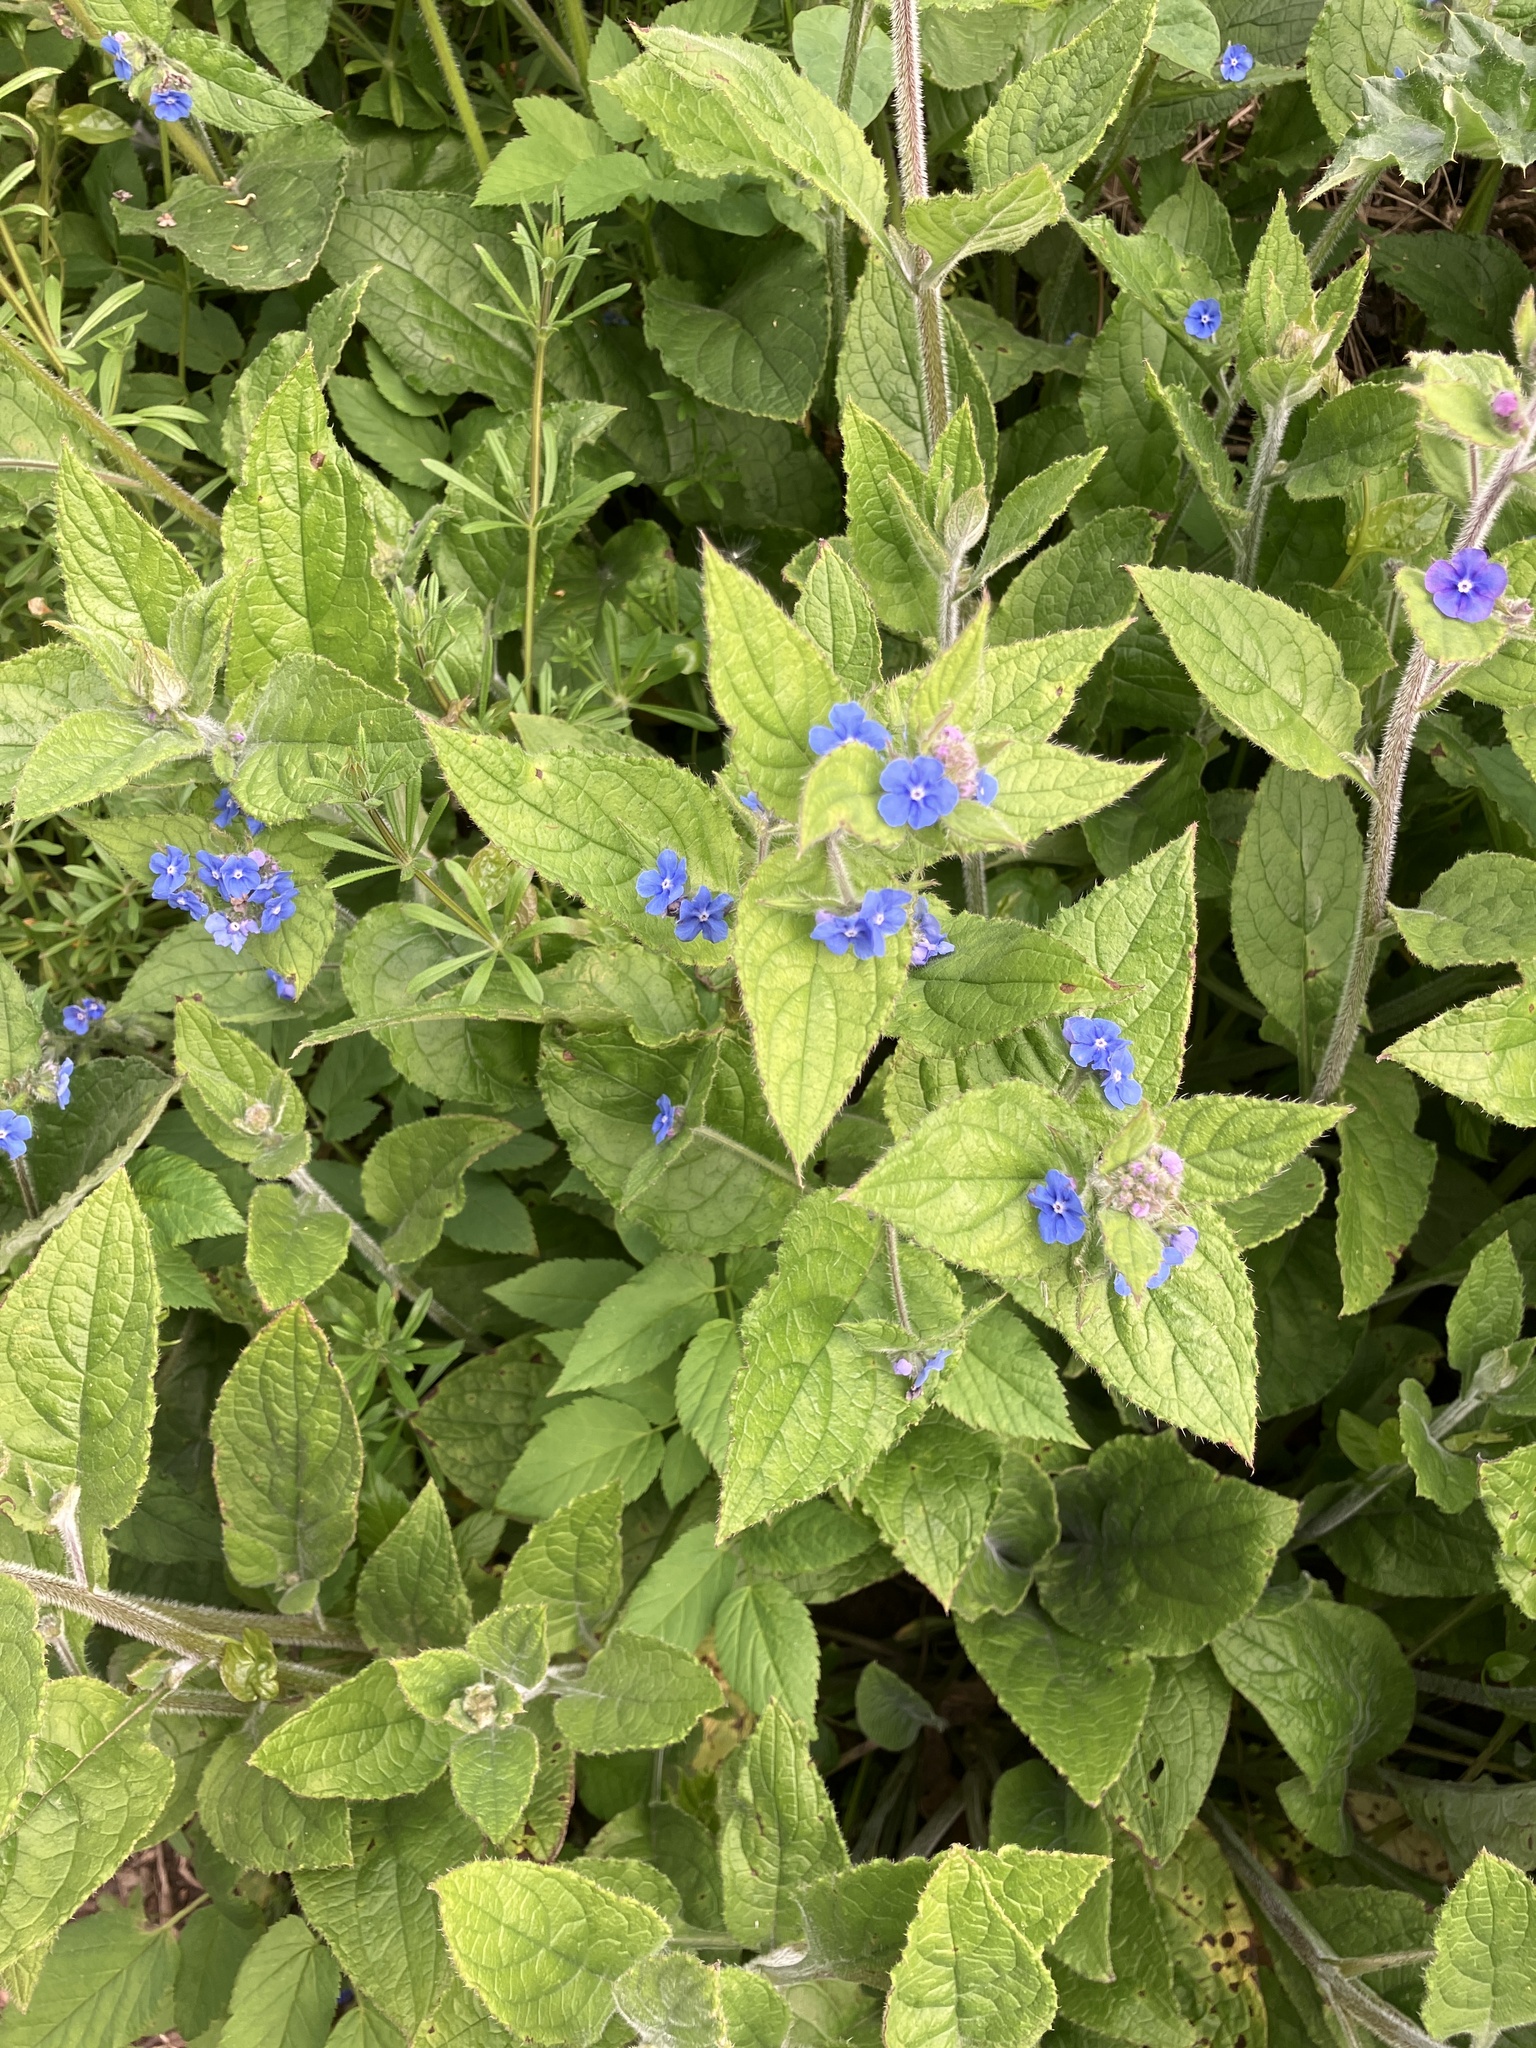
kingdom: Plantae
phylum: Tracheophyta
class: Magnoliopsida
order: Boraginales
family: Boraginaceae
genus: Pentaglottis
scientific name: Pentaglottis sempervirens
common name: Green alkanet
